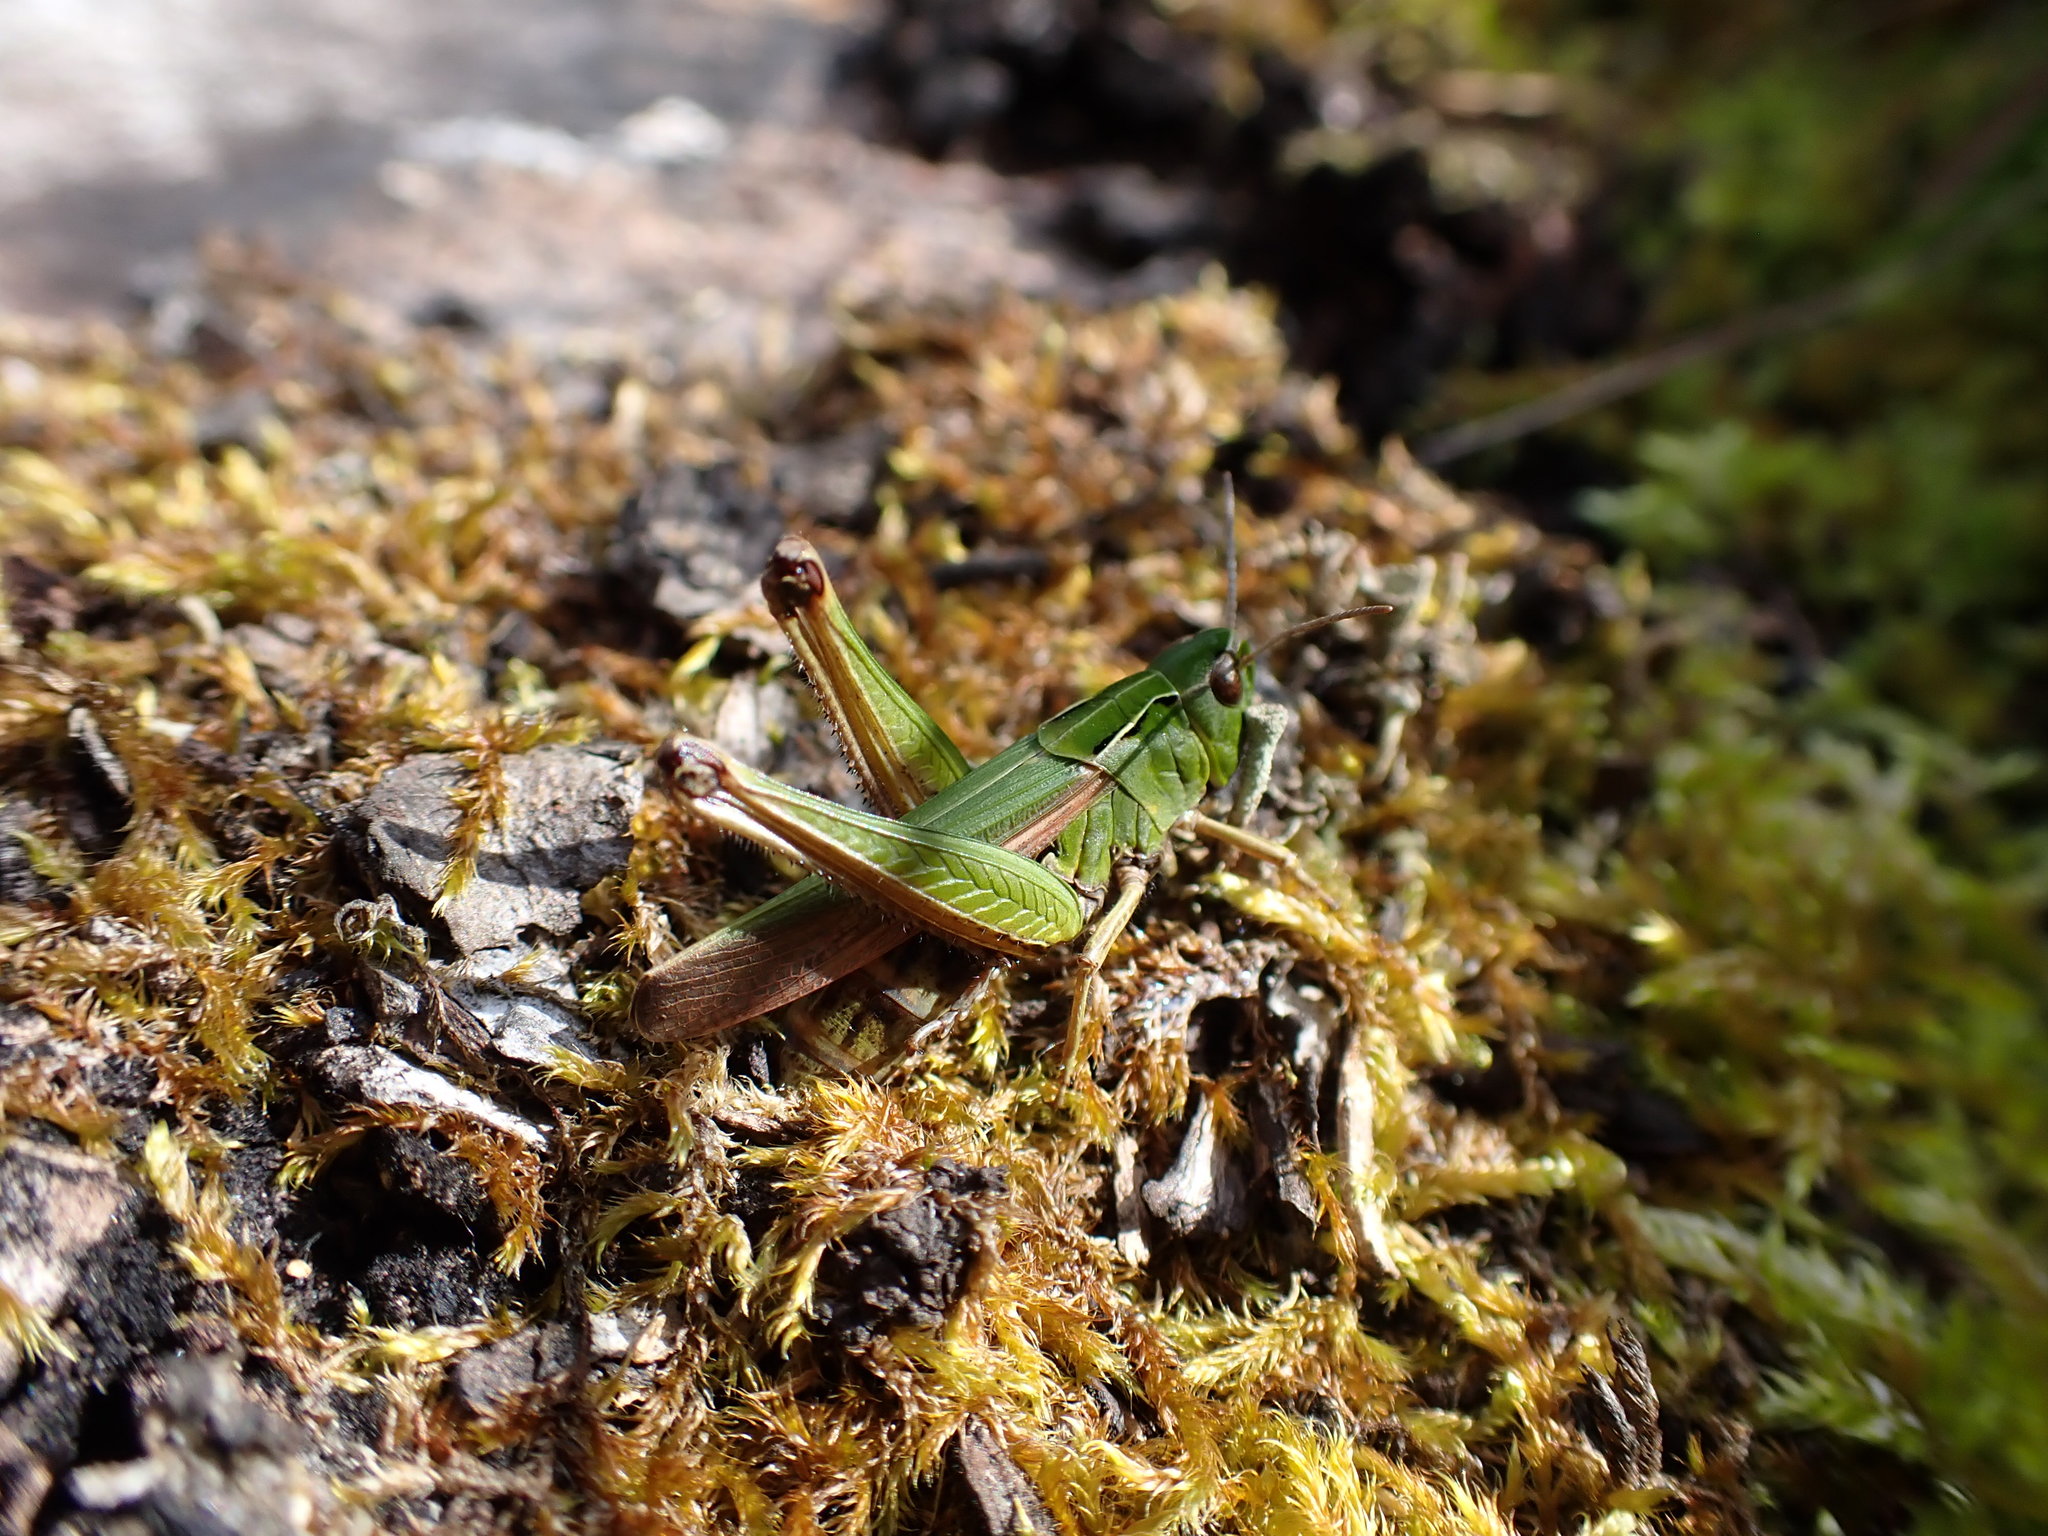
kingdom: Animalia
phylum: Arthropoda
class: Insecta
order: Orthoptera
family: Acrididae
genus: Omocestus
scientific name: Omocestus viridulus
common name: Common green grasshopper
